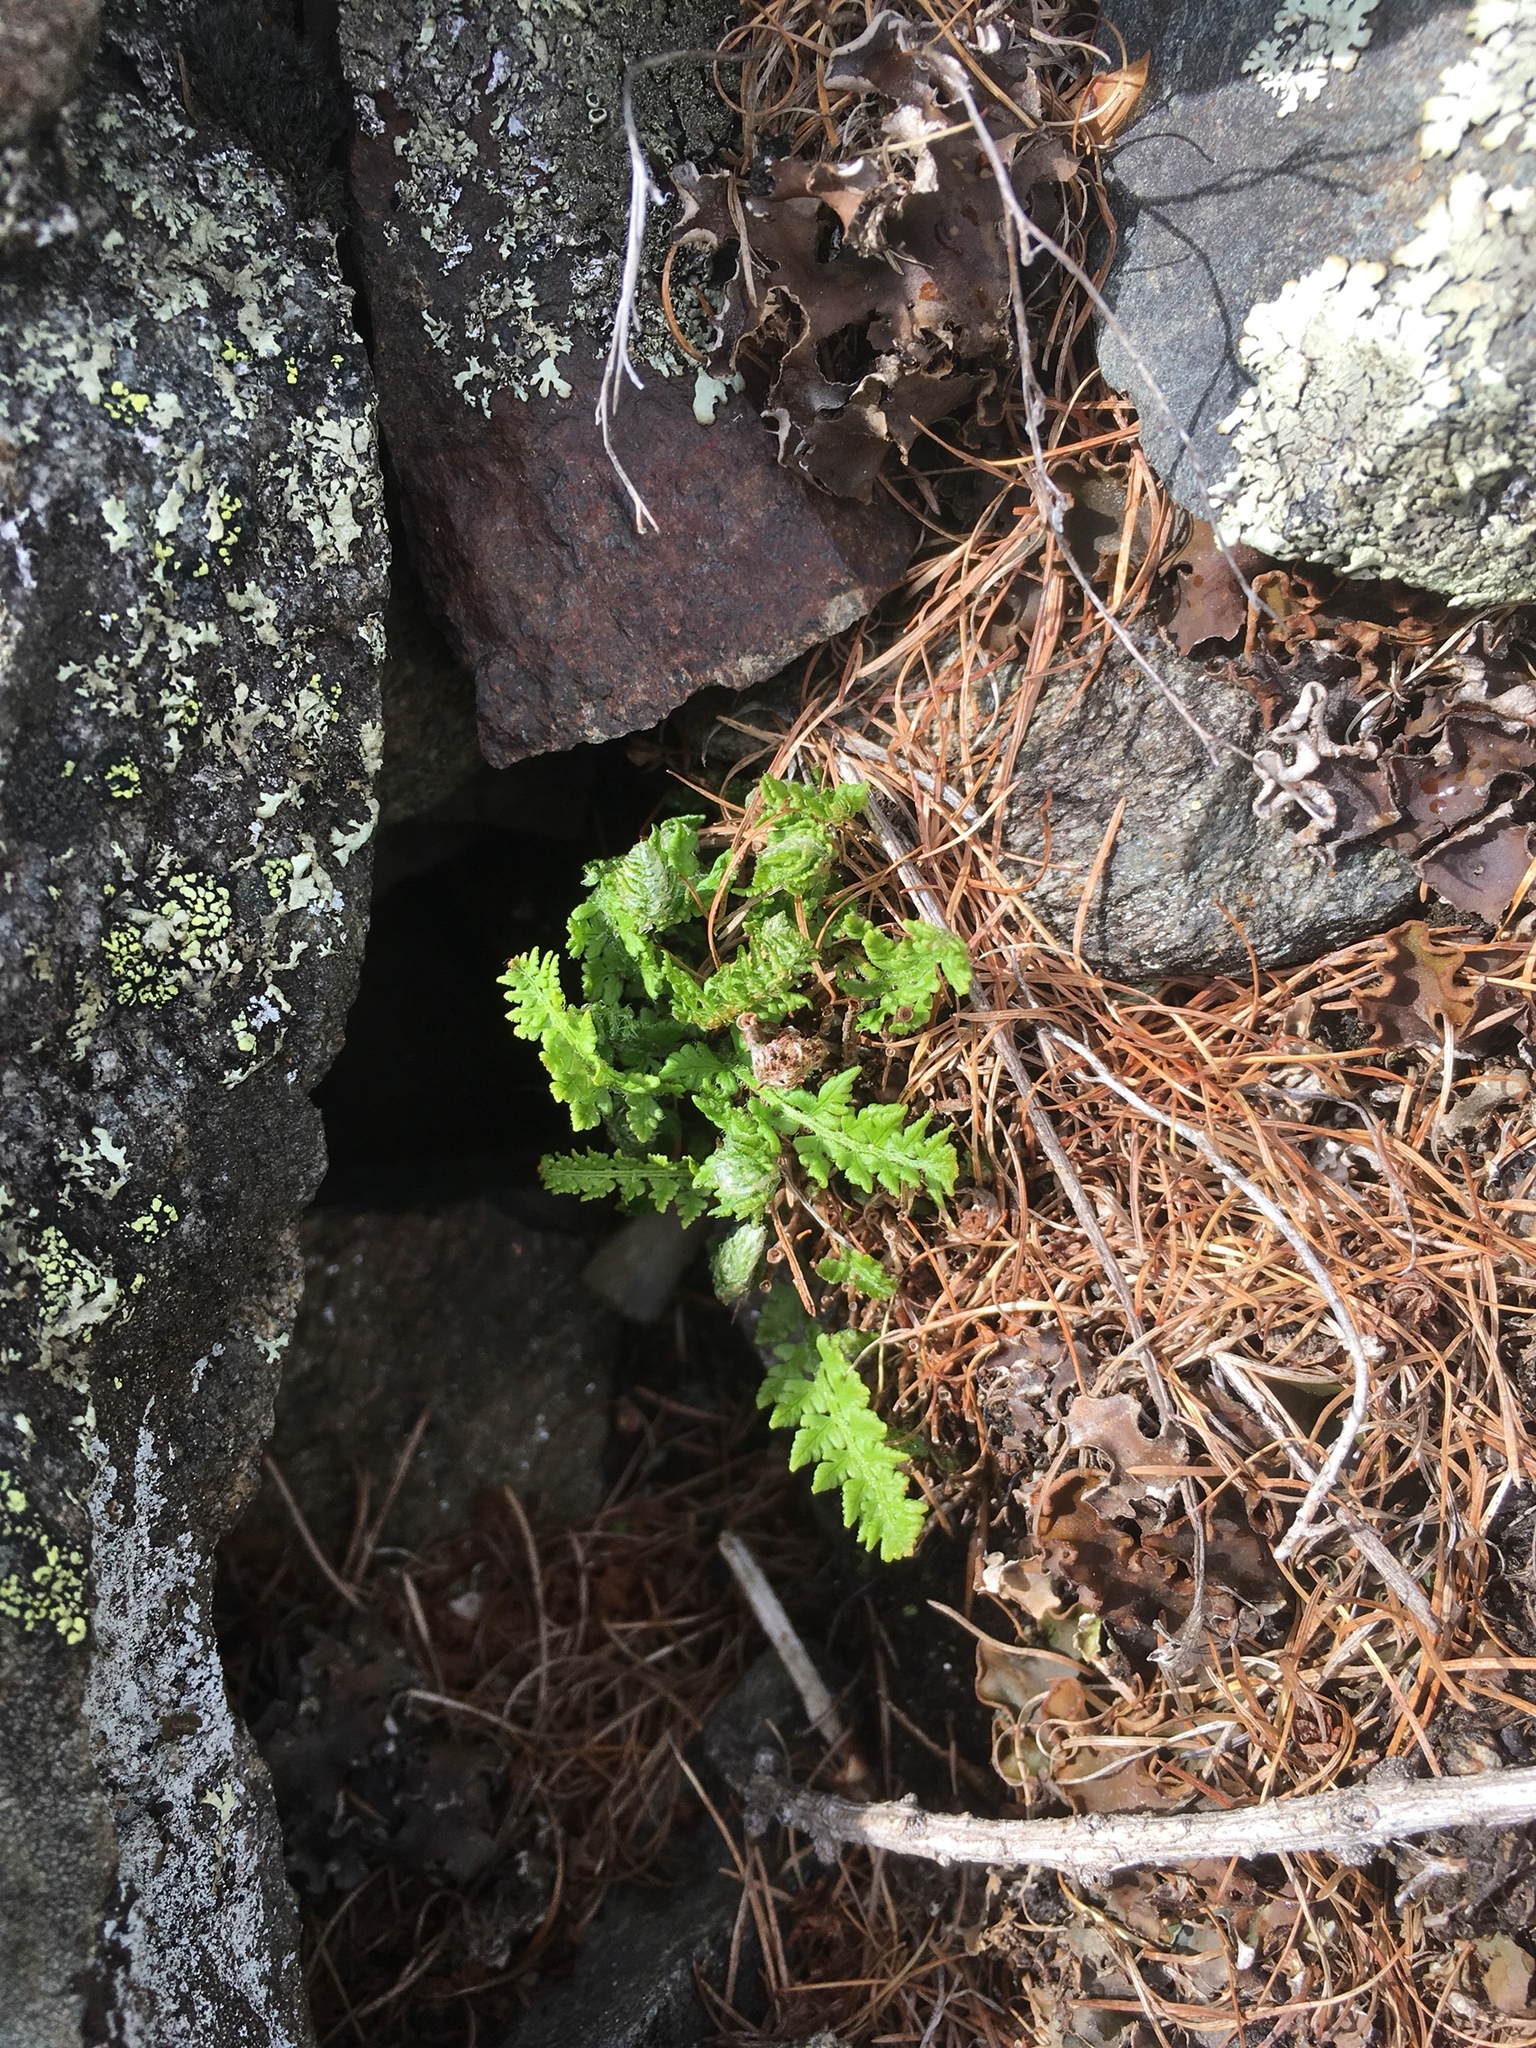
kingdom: Plantae
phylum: Tracheophyta
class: Polypodiopsida
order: Polypodiales
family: Woodsiaceae
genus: Woodsia
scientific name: Woodsia ilvensis
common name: Fragrant woodsia
